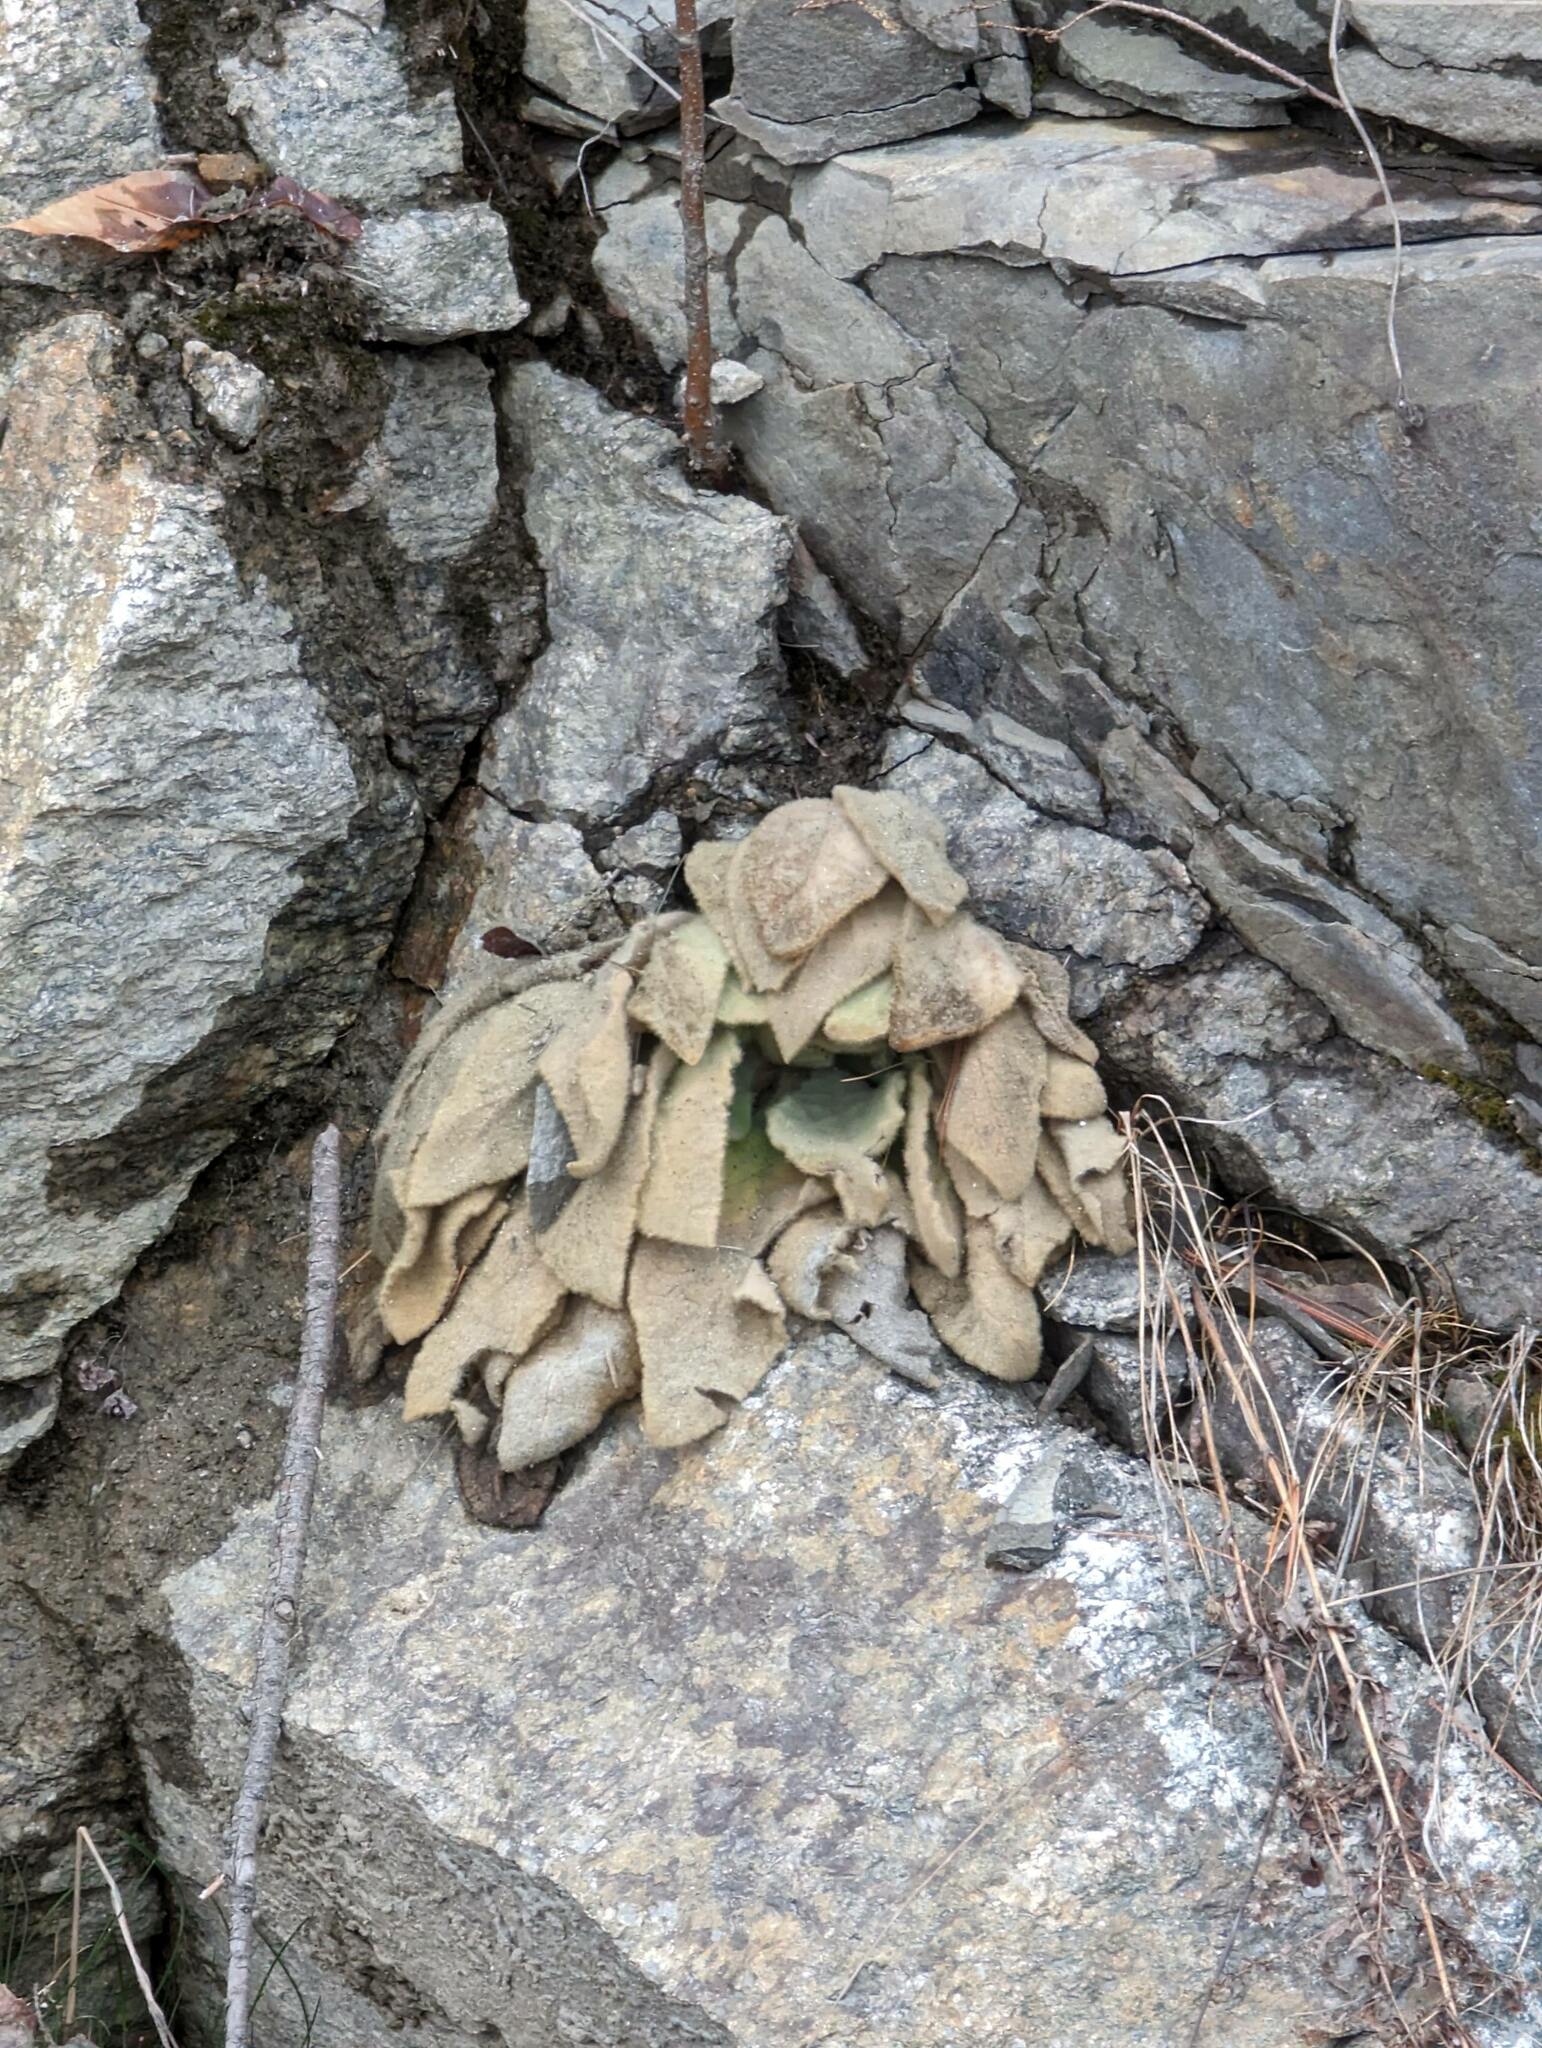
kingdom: Plantae
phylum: Tracheophyta
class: Magnoliopsida
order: Lamiales
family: Scrophulariaceae
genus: Verbascum
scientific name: Verbascum thapsus
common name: Common mullein
